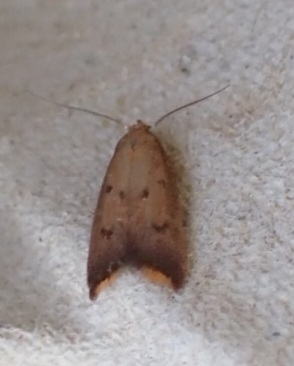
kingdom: Animalia
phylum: Arthropoda
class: Insecta
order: Lepidoptera
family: Oecophoridae
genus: Tachystola
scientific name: Tachystola acroxantha
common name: Ruddy streak
